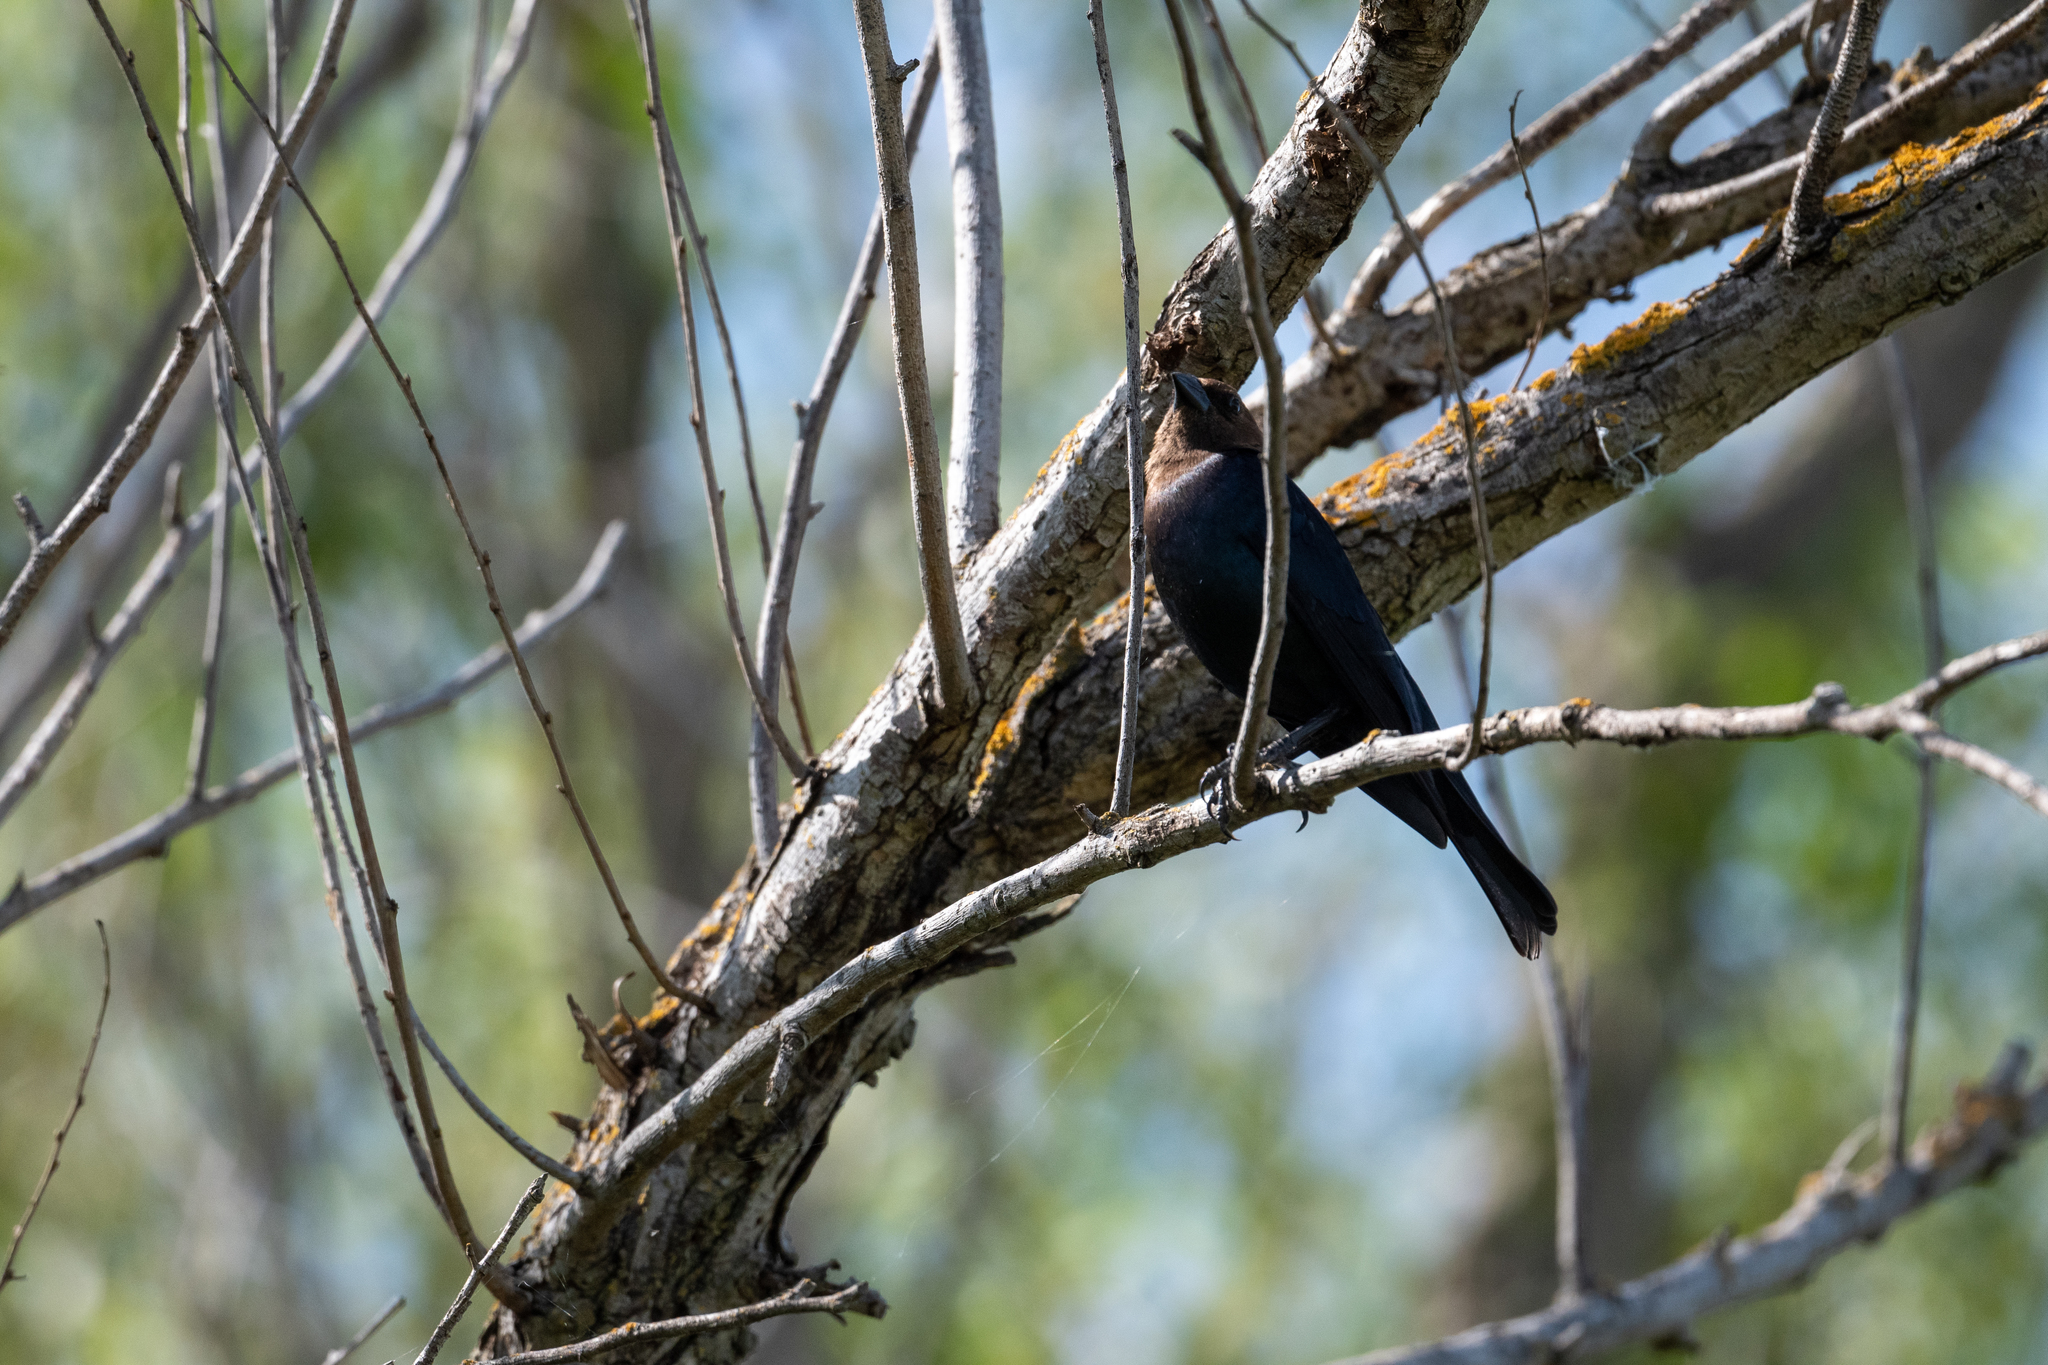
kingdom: Animalia
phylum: Chordata
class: Aves
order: Passeriformes
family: Icteridae
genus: Molothrus
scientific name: Molothrus ater
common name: Brown-headed cowbird
